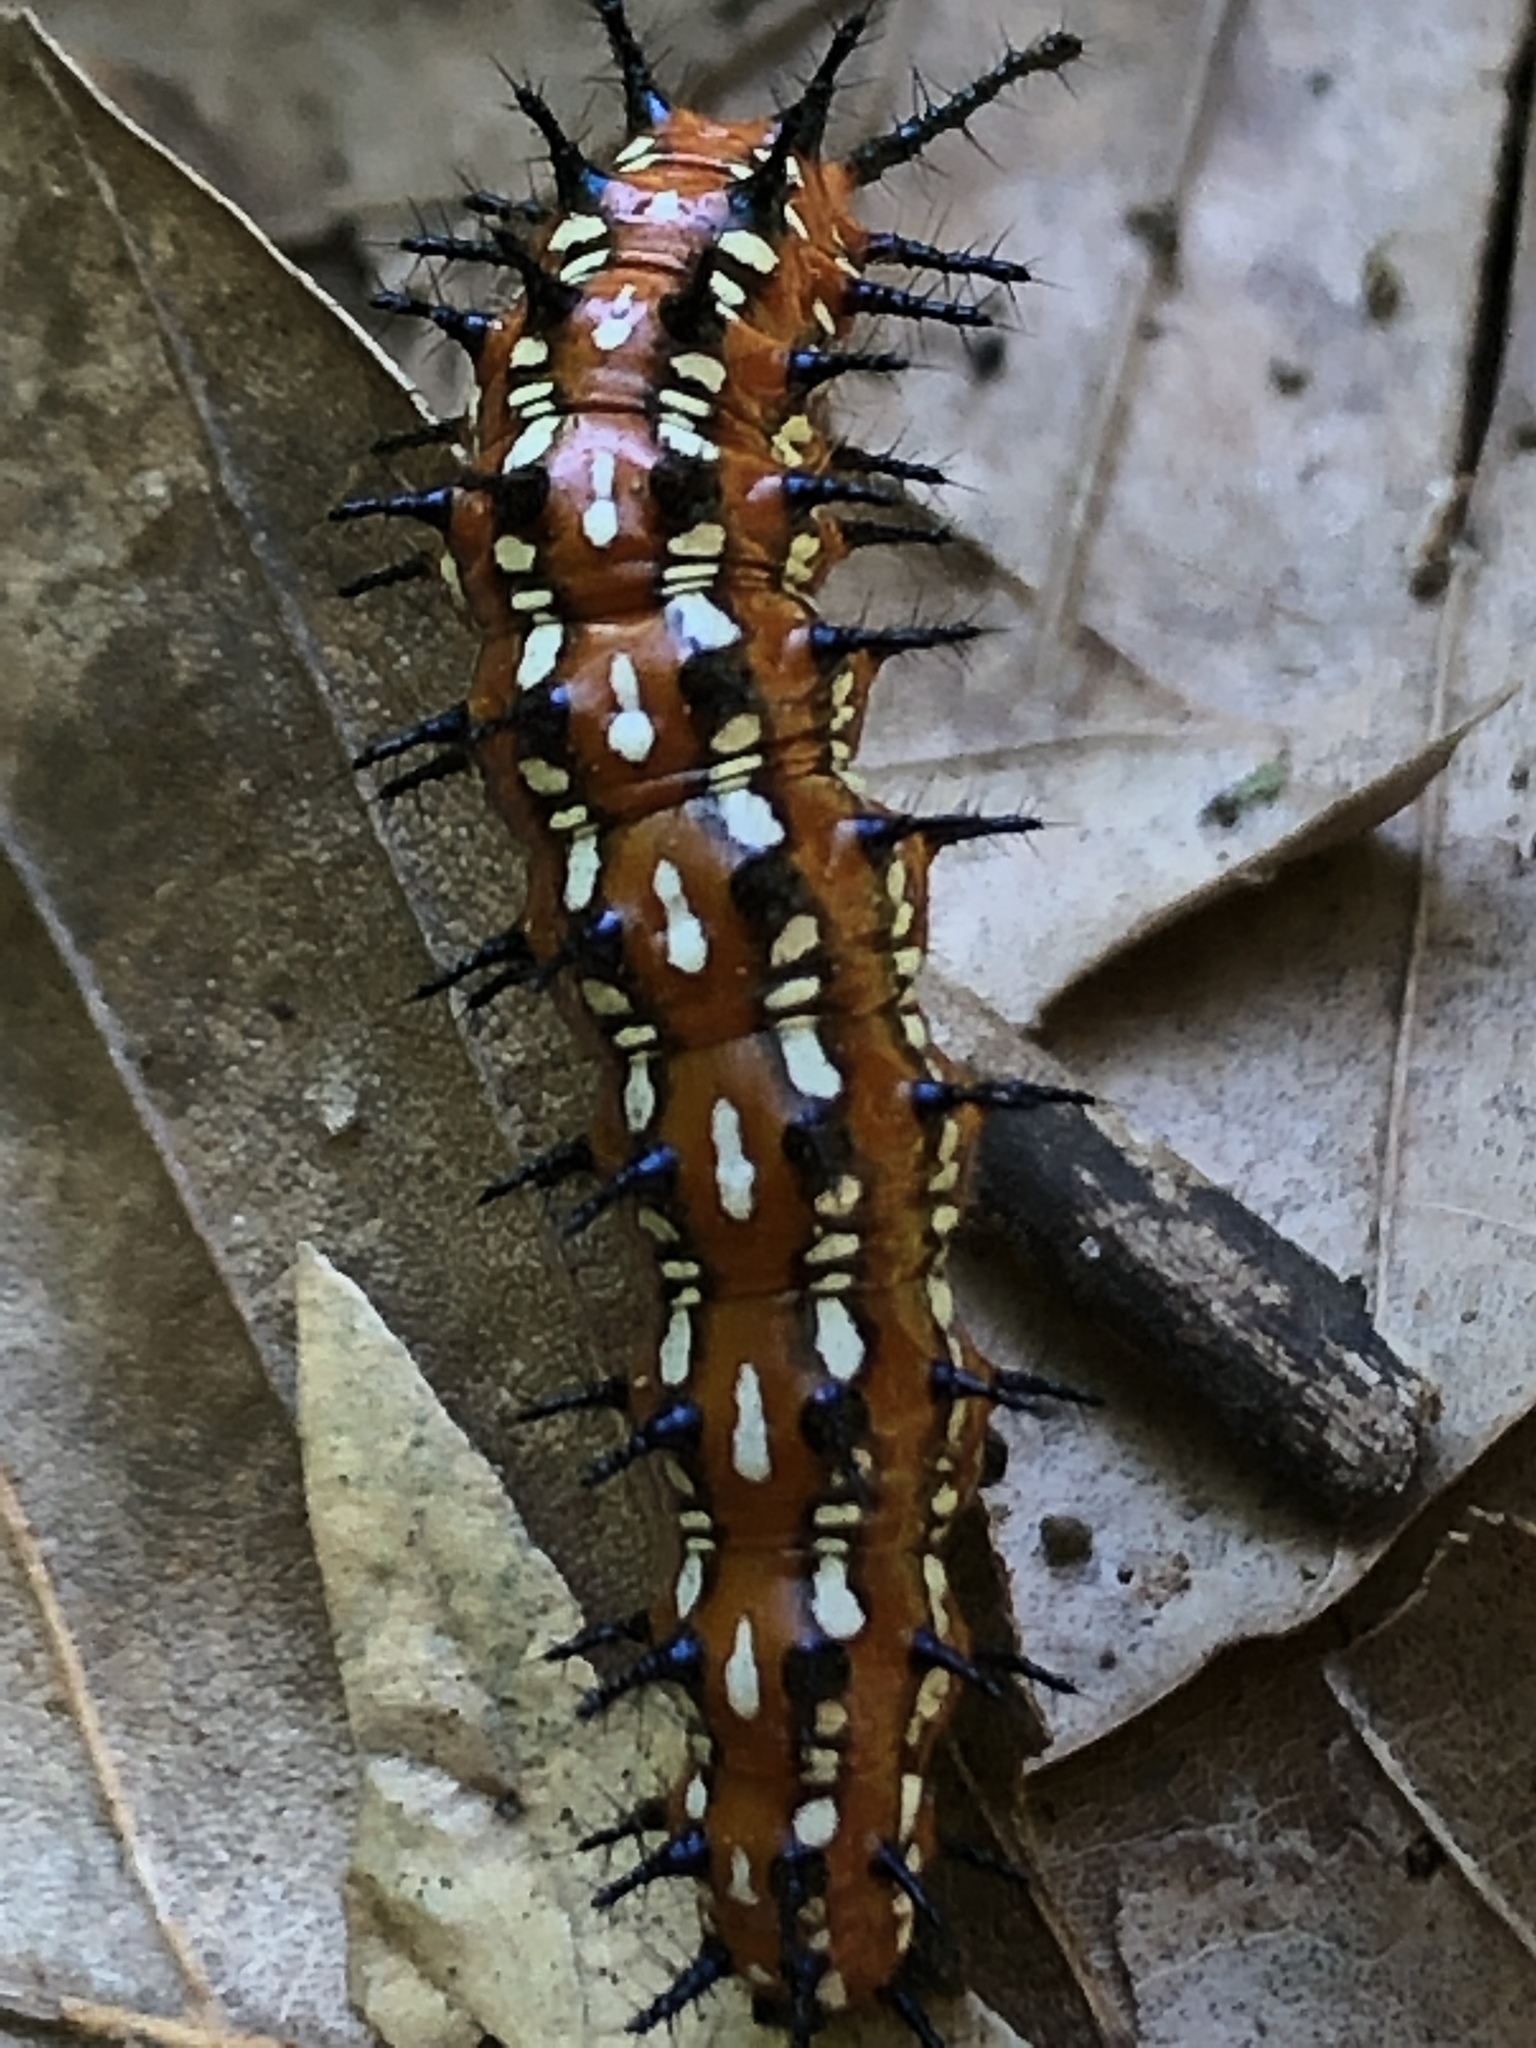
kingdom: Animalia
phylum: Arthropoda
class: Insecta
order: Lepidoptera
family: Nymphalidae
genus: Euptoieta
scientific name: Euptoieta claudia
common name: Variegated fritillary
